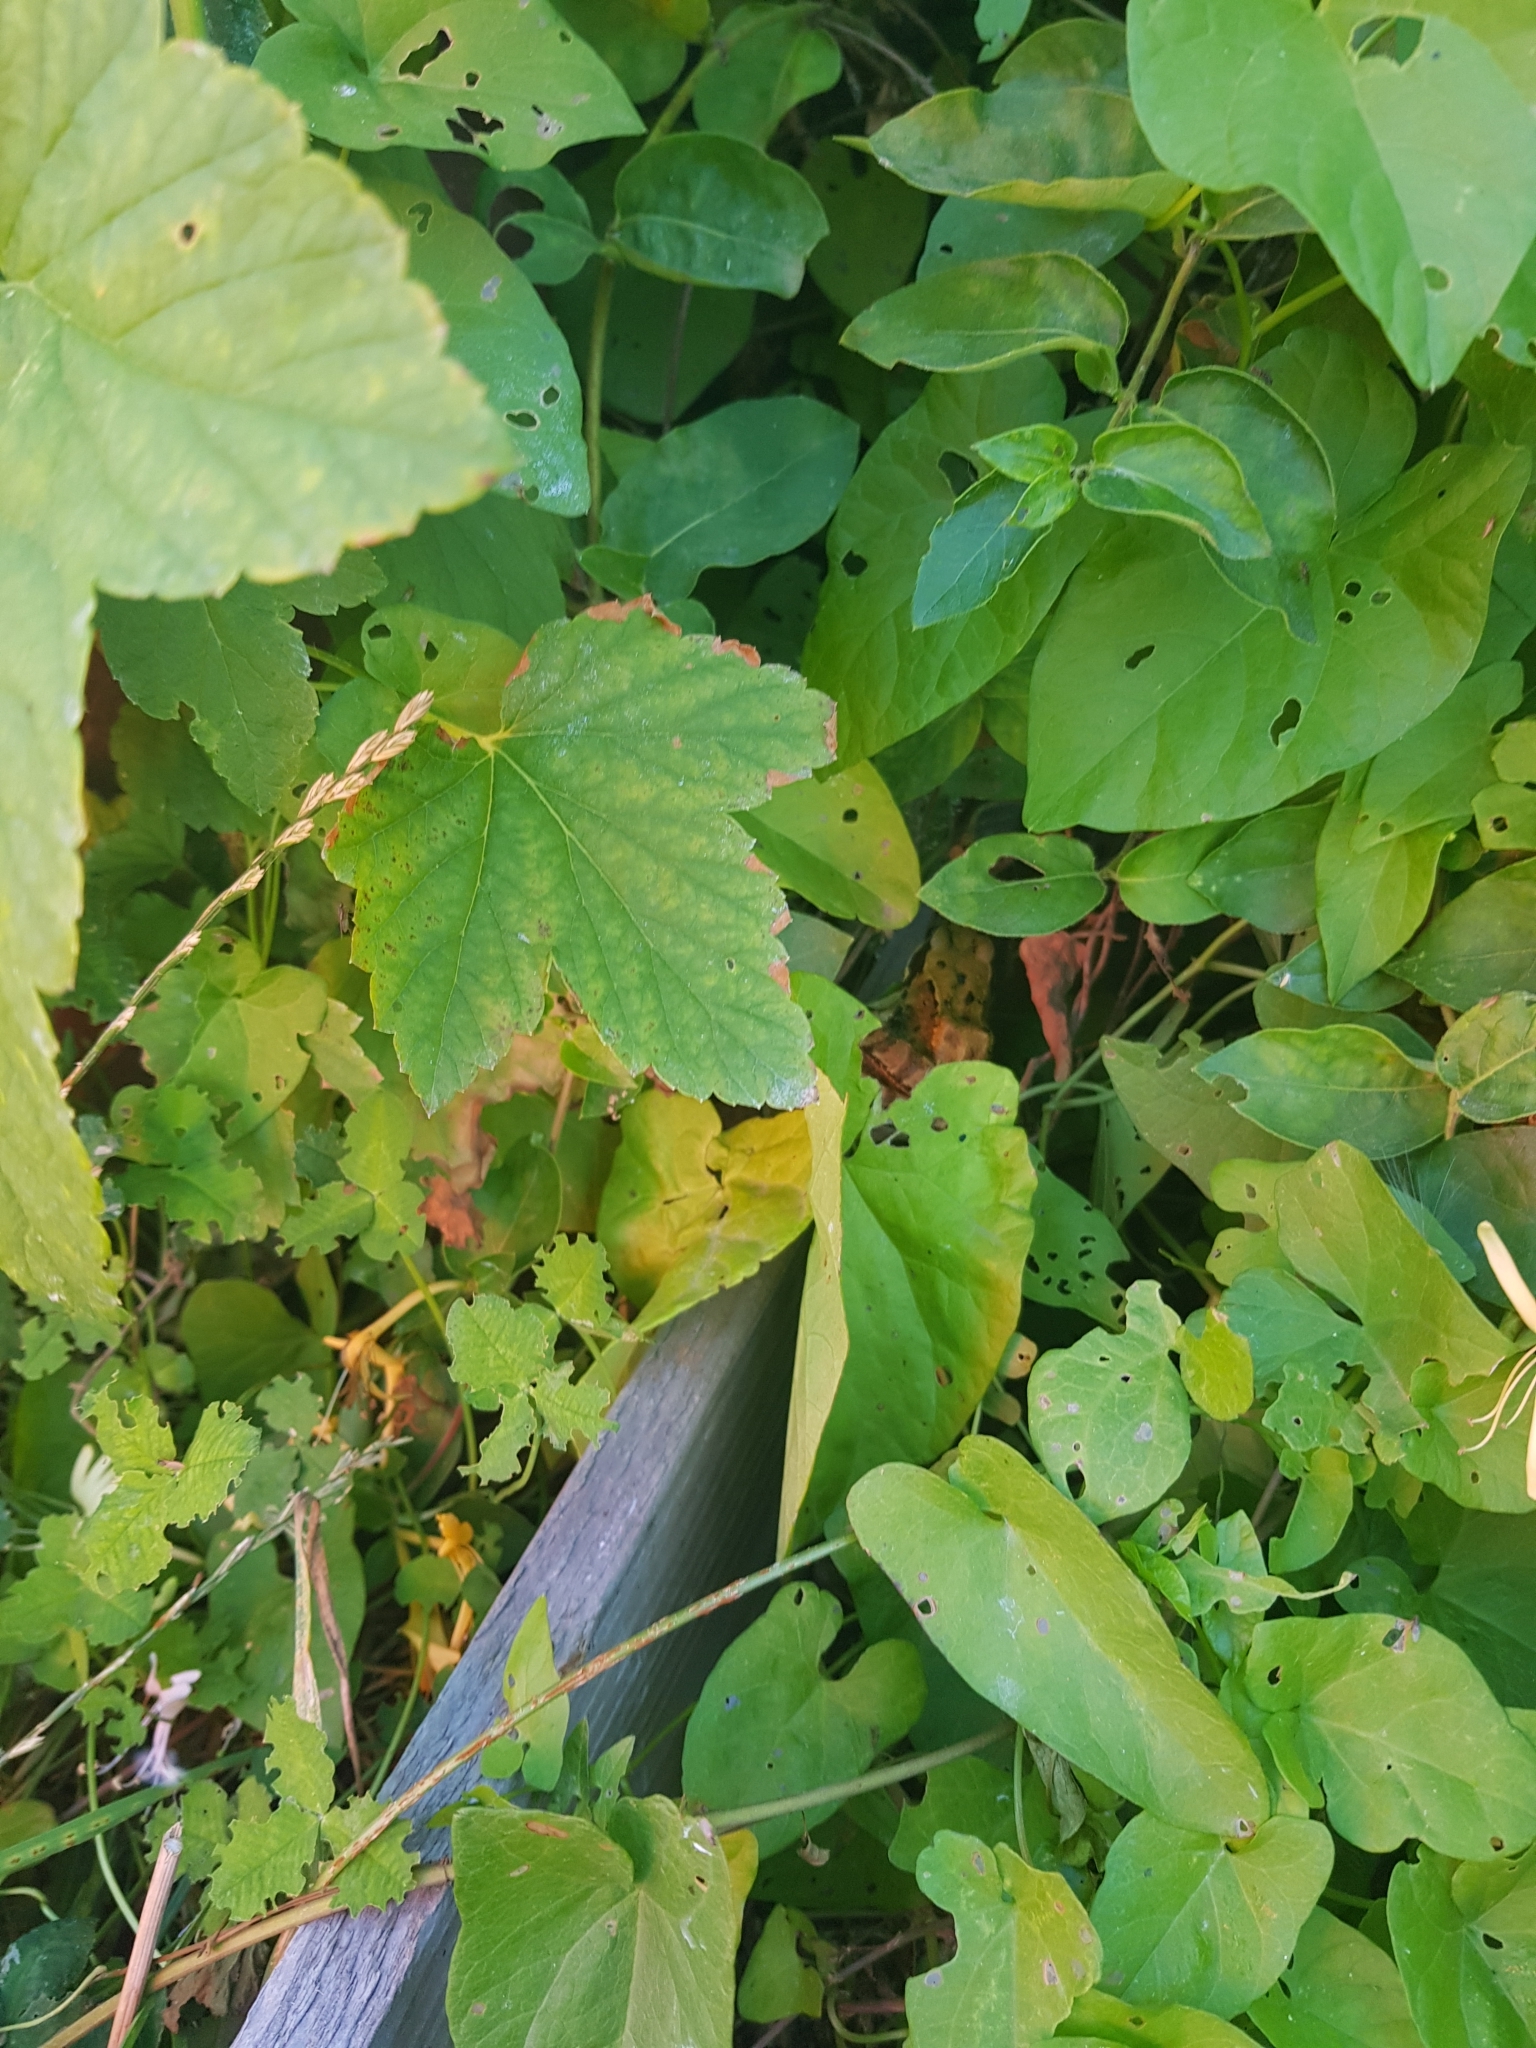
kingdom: Animalia
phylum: Chordata
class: Amphibia
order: Anura
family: Ranidae
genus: Rana
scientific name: Rana temporaria
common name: Common frog
